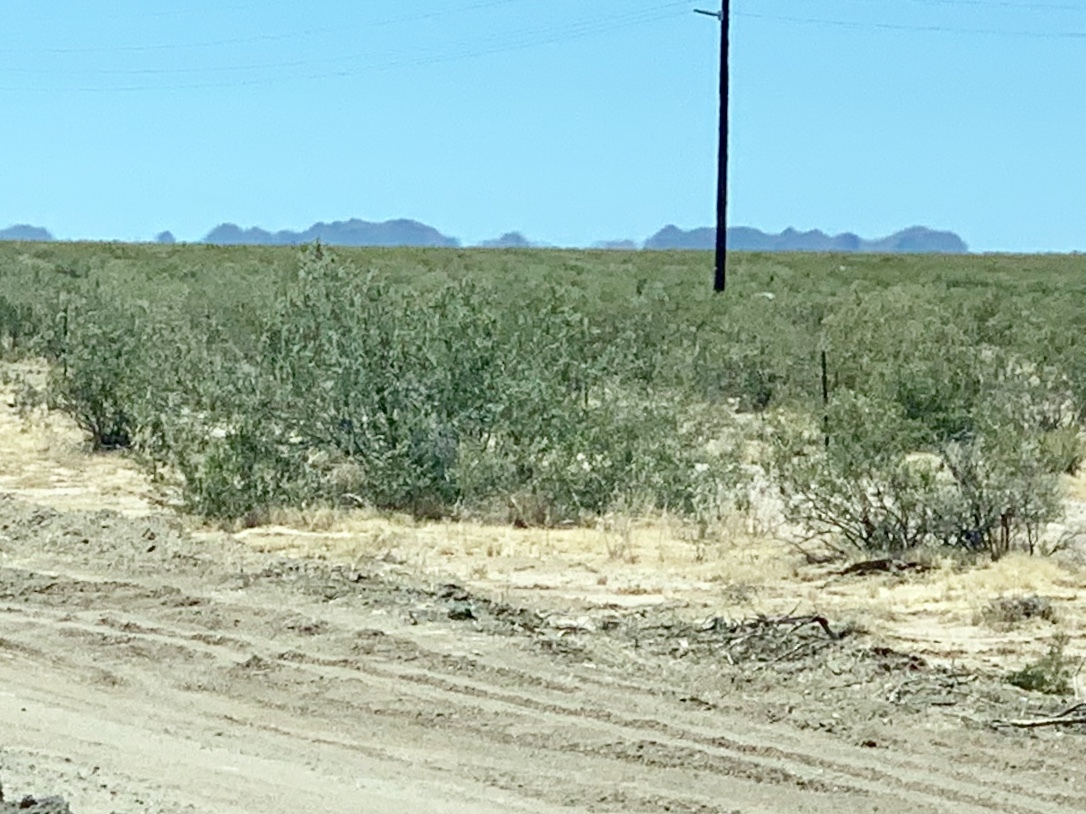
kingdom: Plantae
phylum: Tracheophyta
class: Magnoliopsida
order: Zygophyllales
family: Zygophyllaceae
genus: Larrea
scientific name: Larrea tridentata
